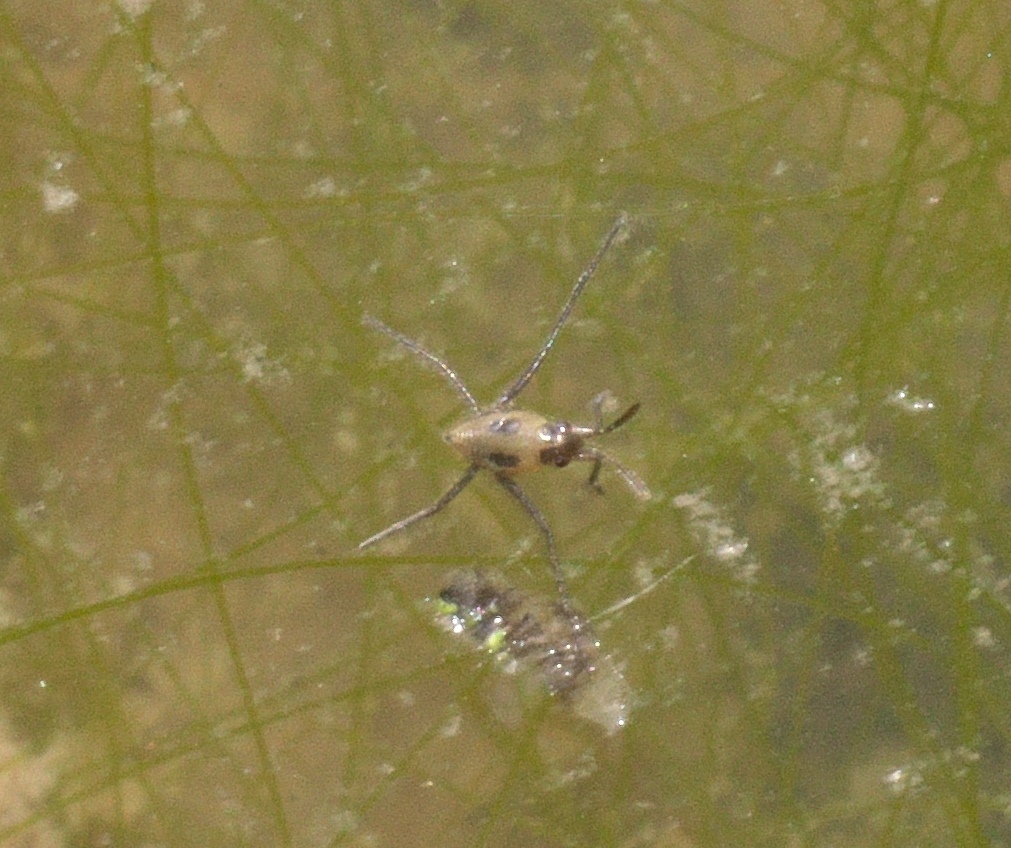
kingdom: Animalia
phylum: Arthropoda
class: Insecta
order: Hemiptera
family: Gerridae
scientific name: Gerridae
